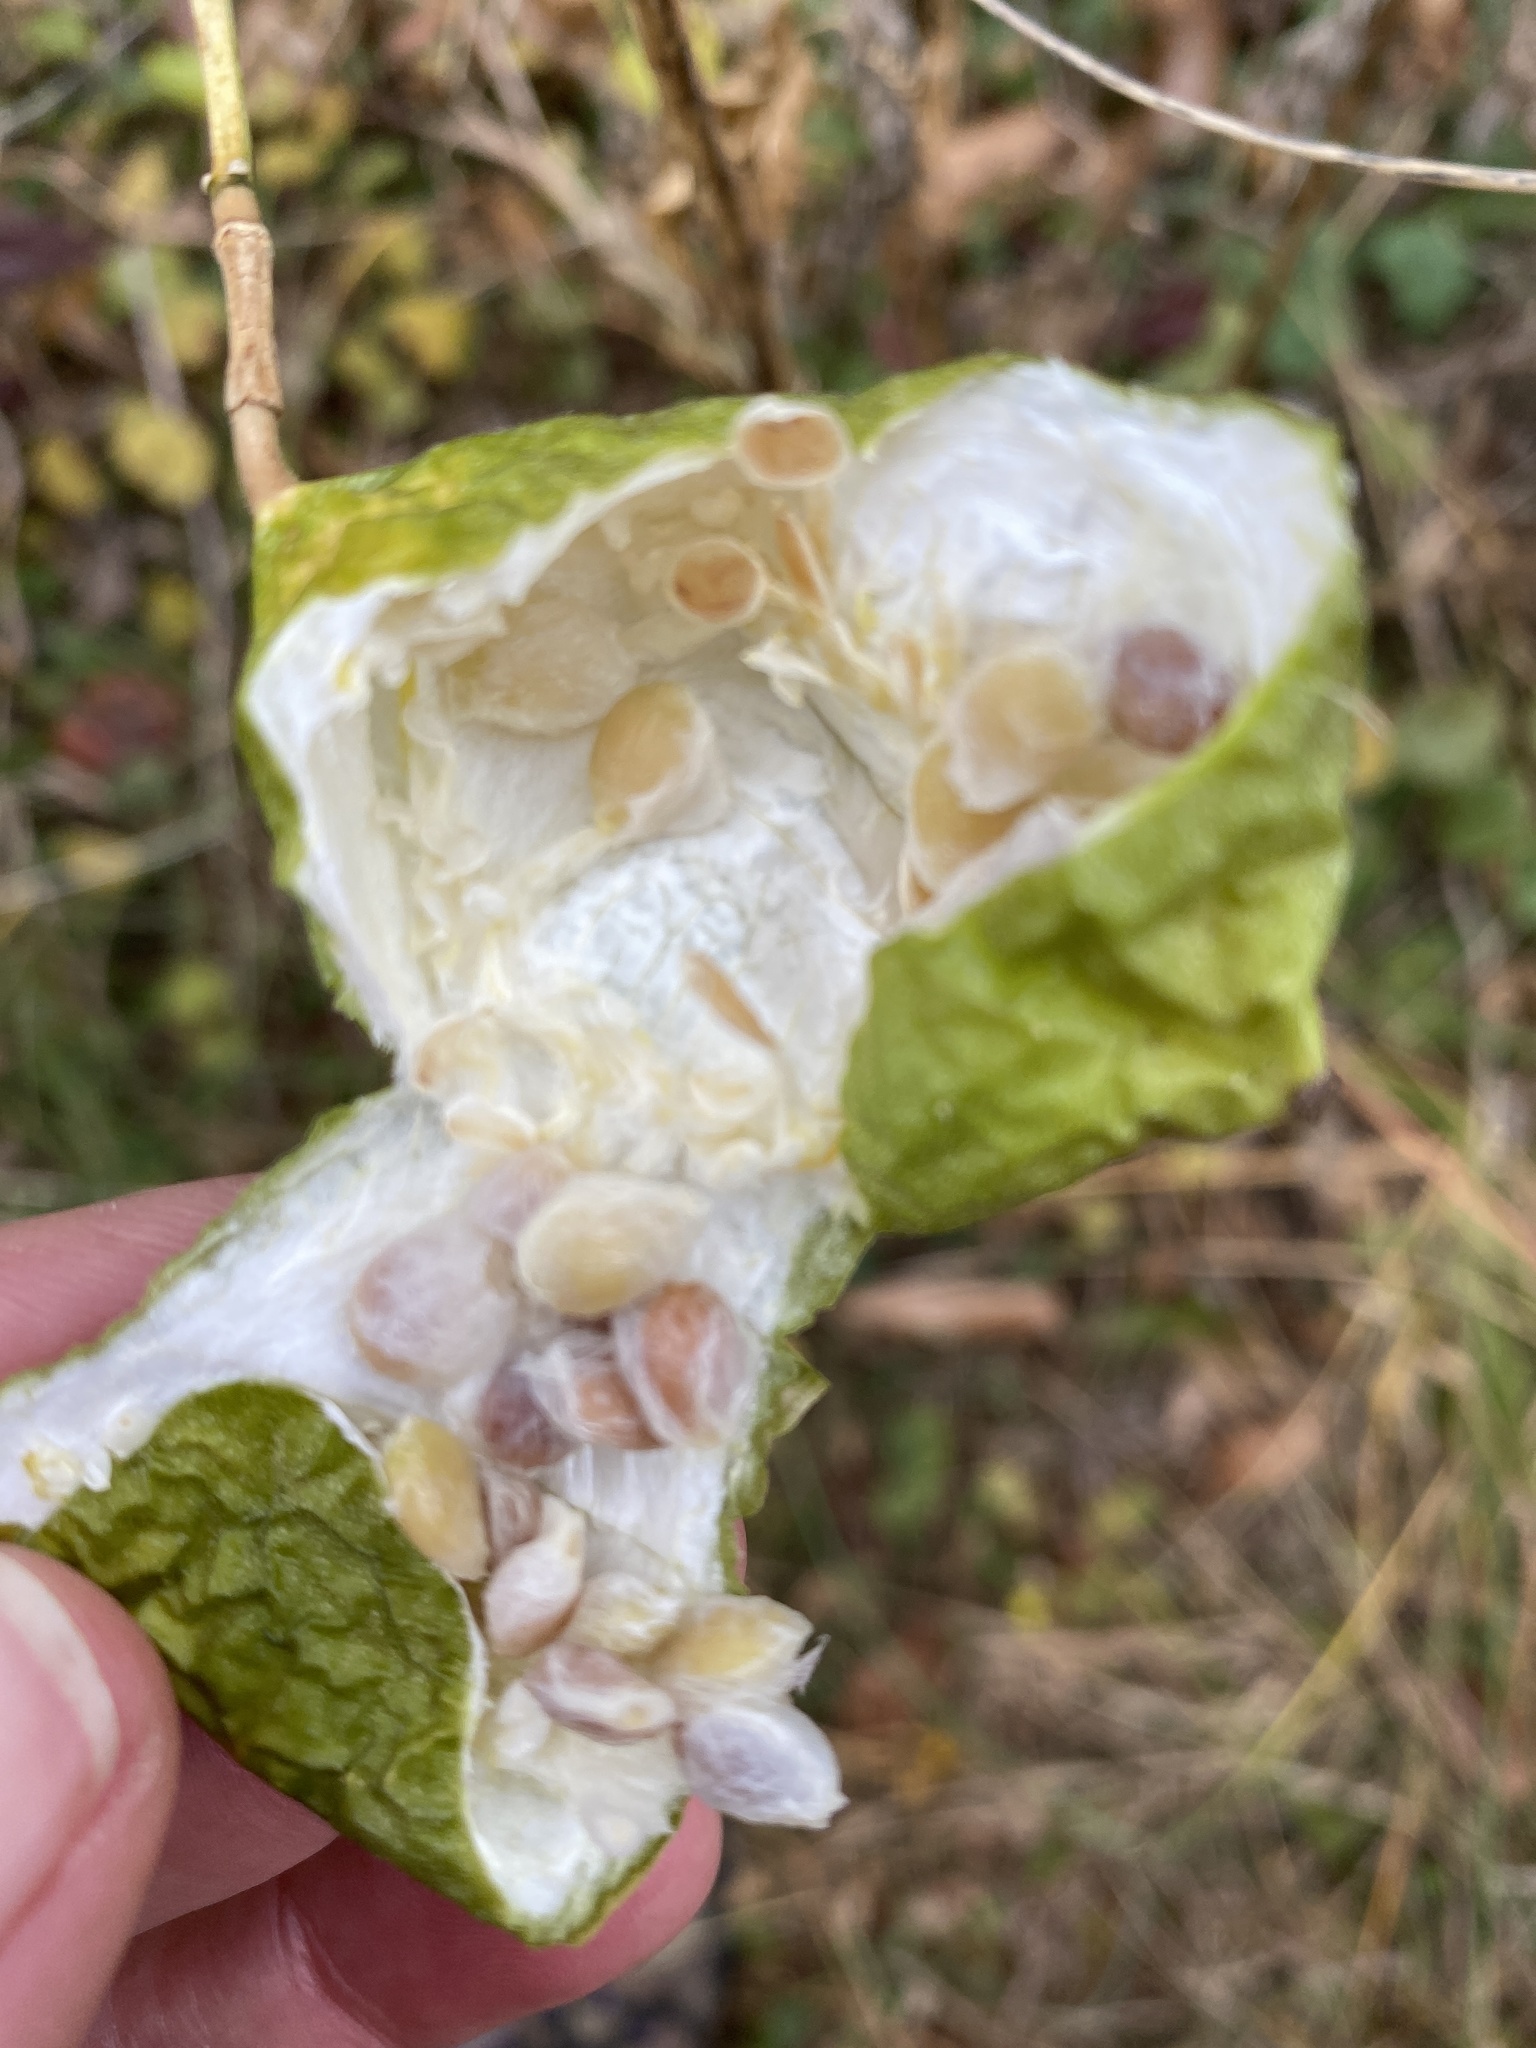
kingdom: Plantae
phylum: Tracheophyta
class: Magnoliopsida
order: Malpighiales
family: Passifloraceae
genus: Passiflora
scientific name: Passiflora incarnata
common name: Apricot-vine
